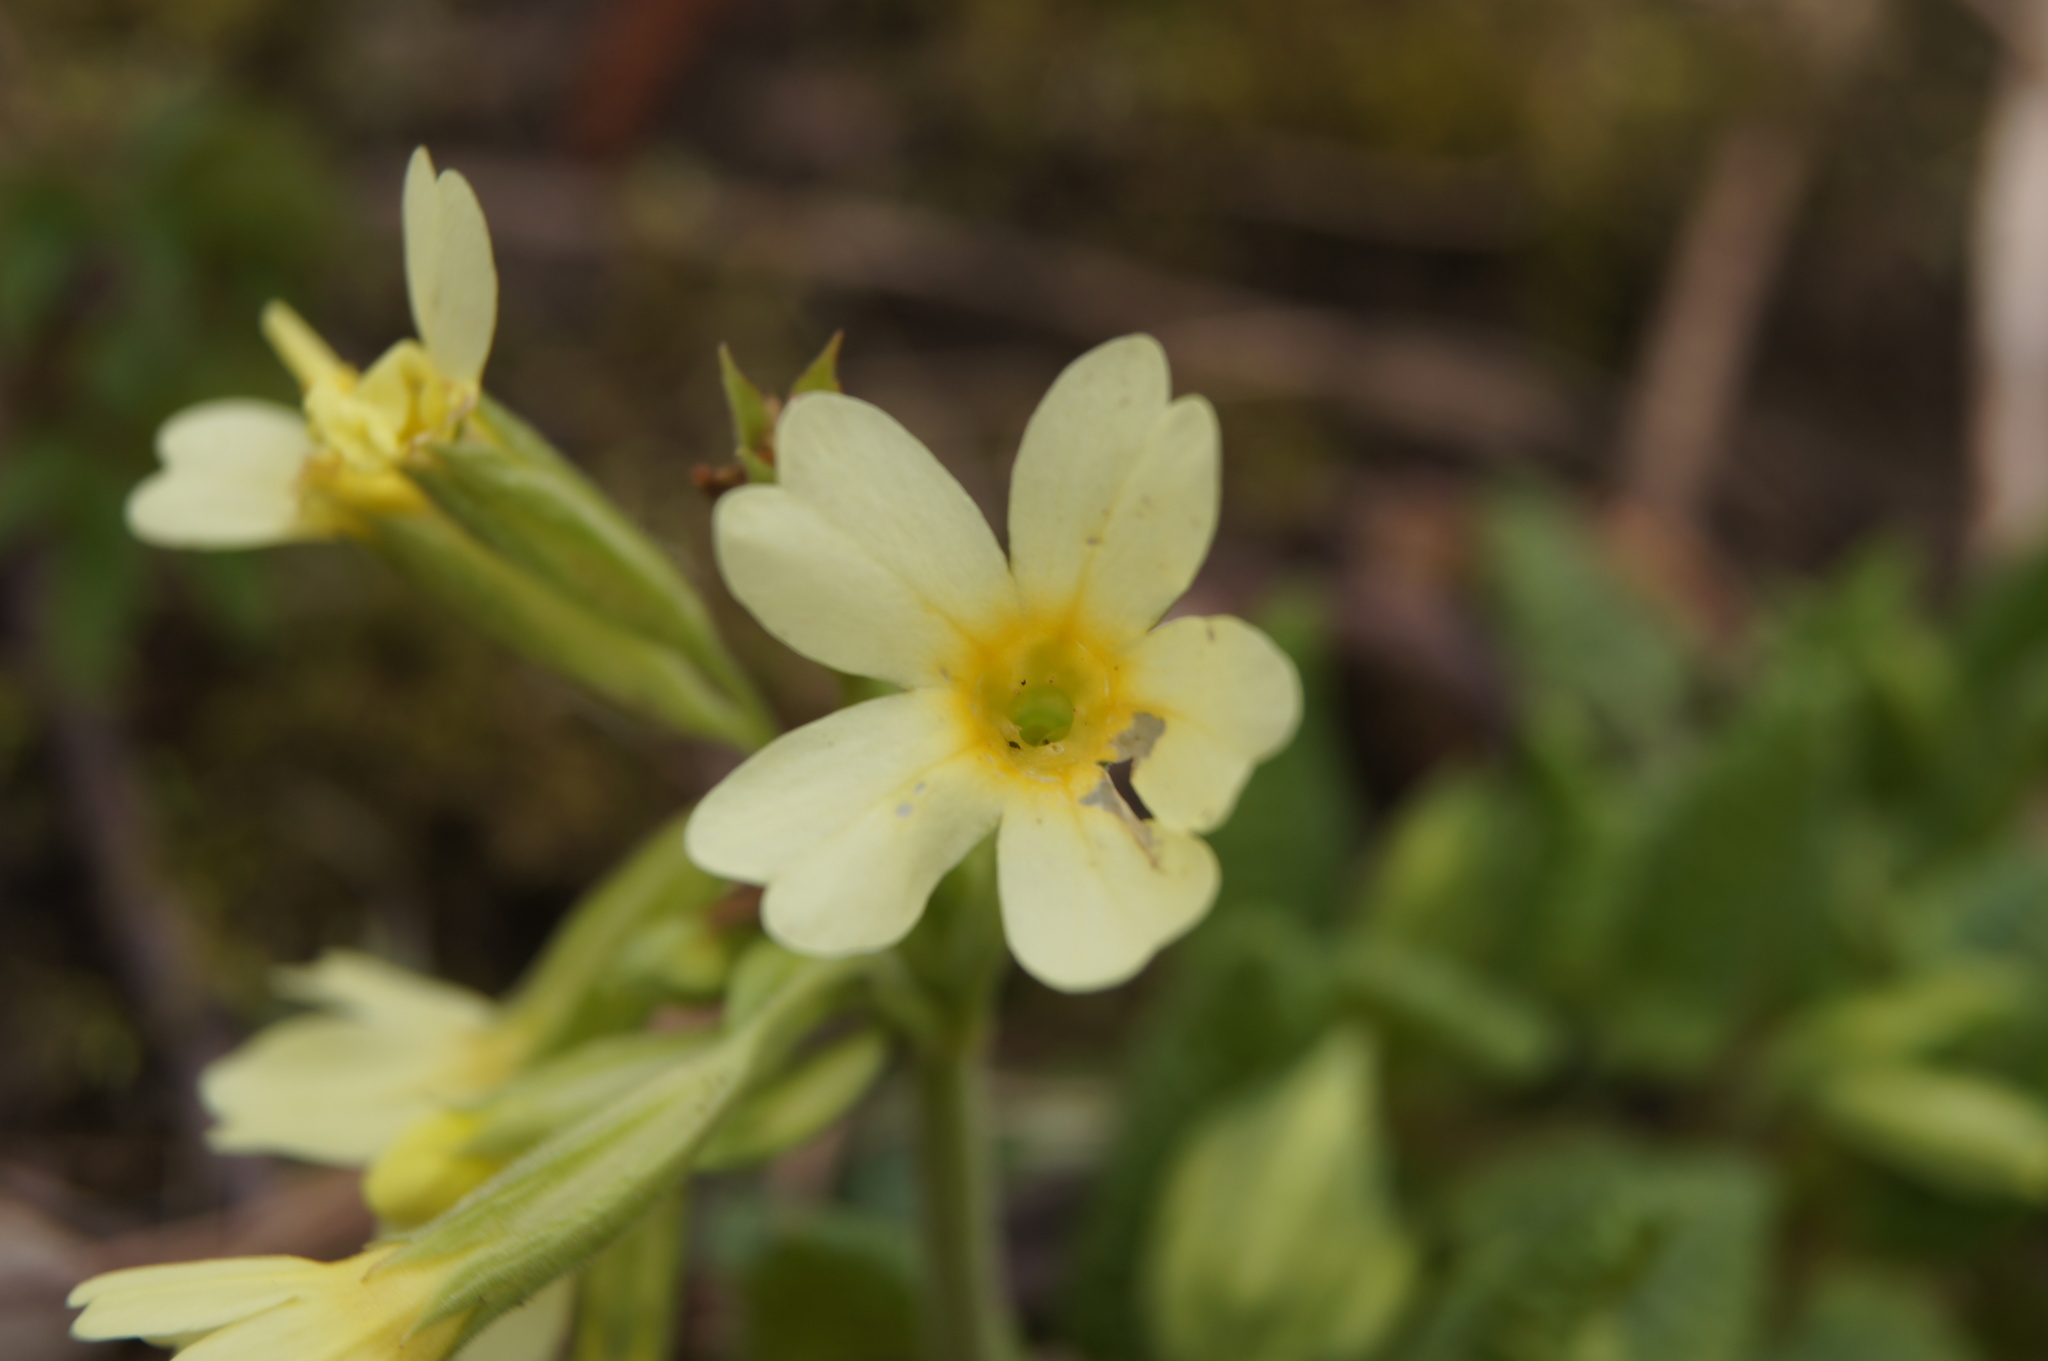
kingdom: Plantae
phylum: Tracheophyta
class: Magnoliopsida
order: Ericales
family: Primulaceae
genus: Primula
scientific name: Primula elatior
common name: Oxlip
